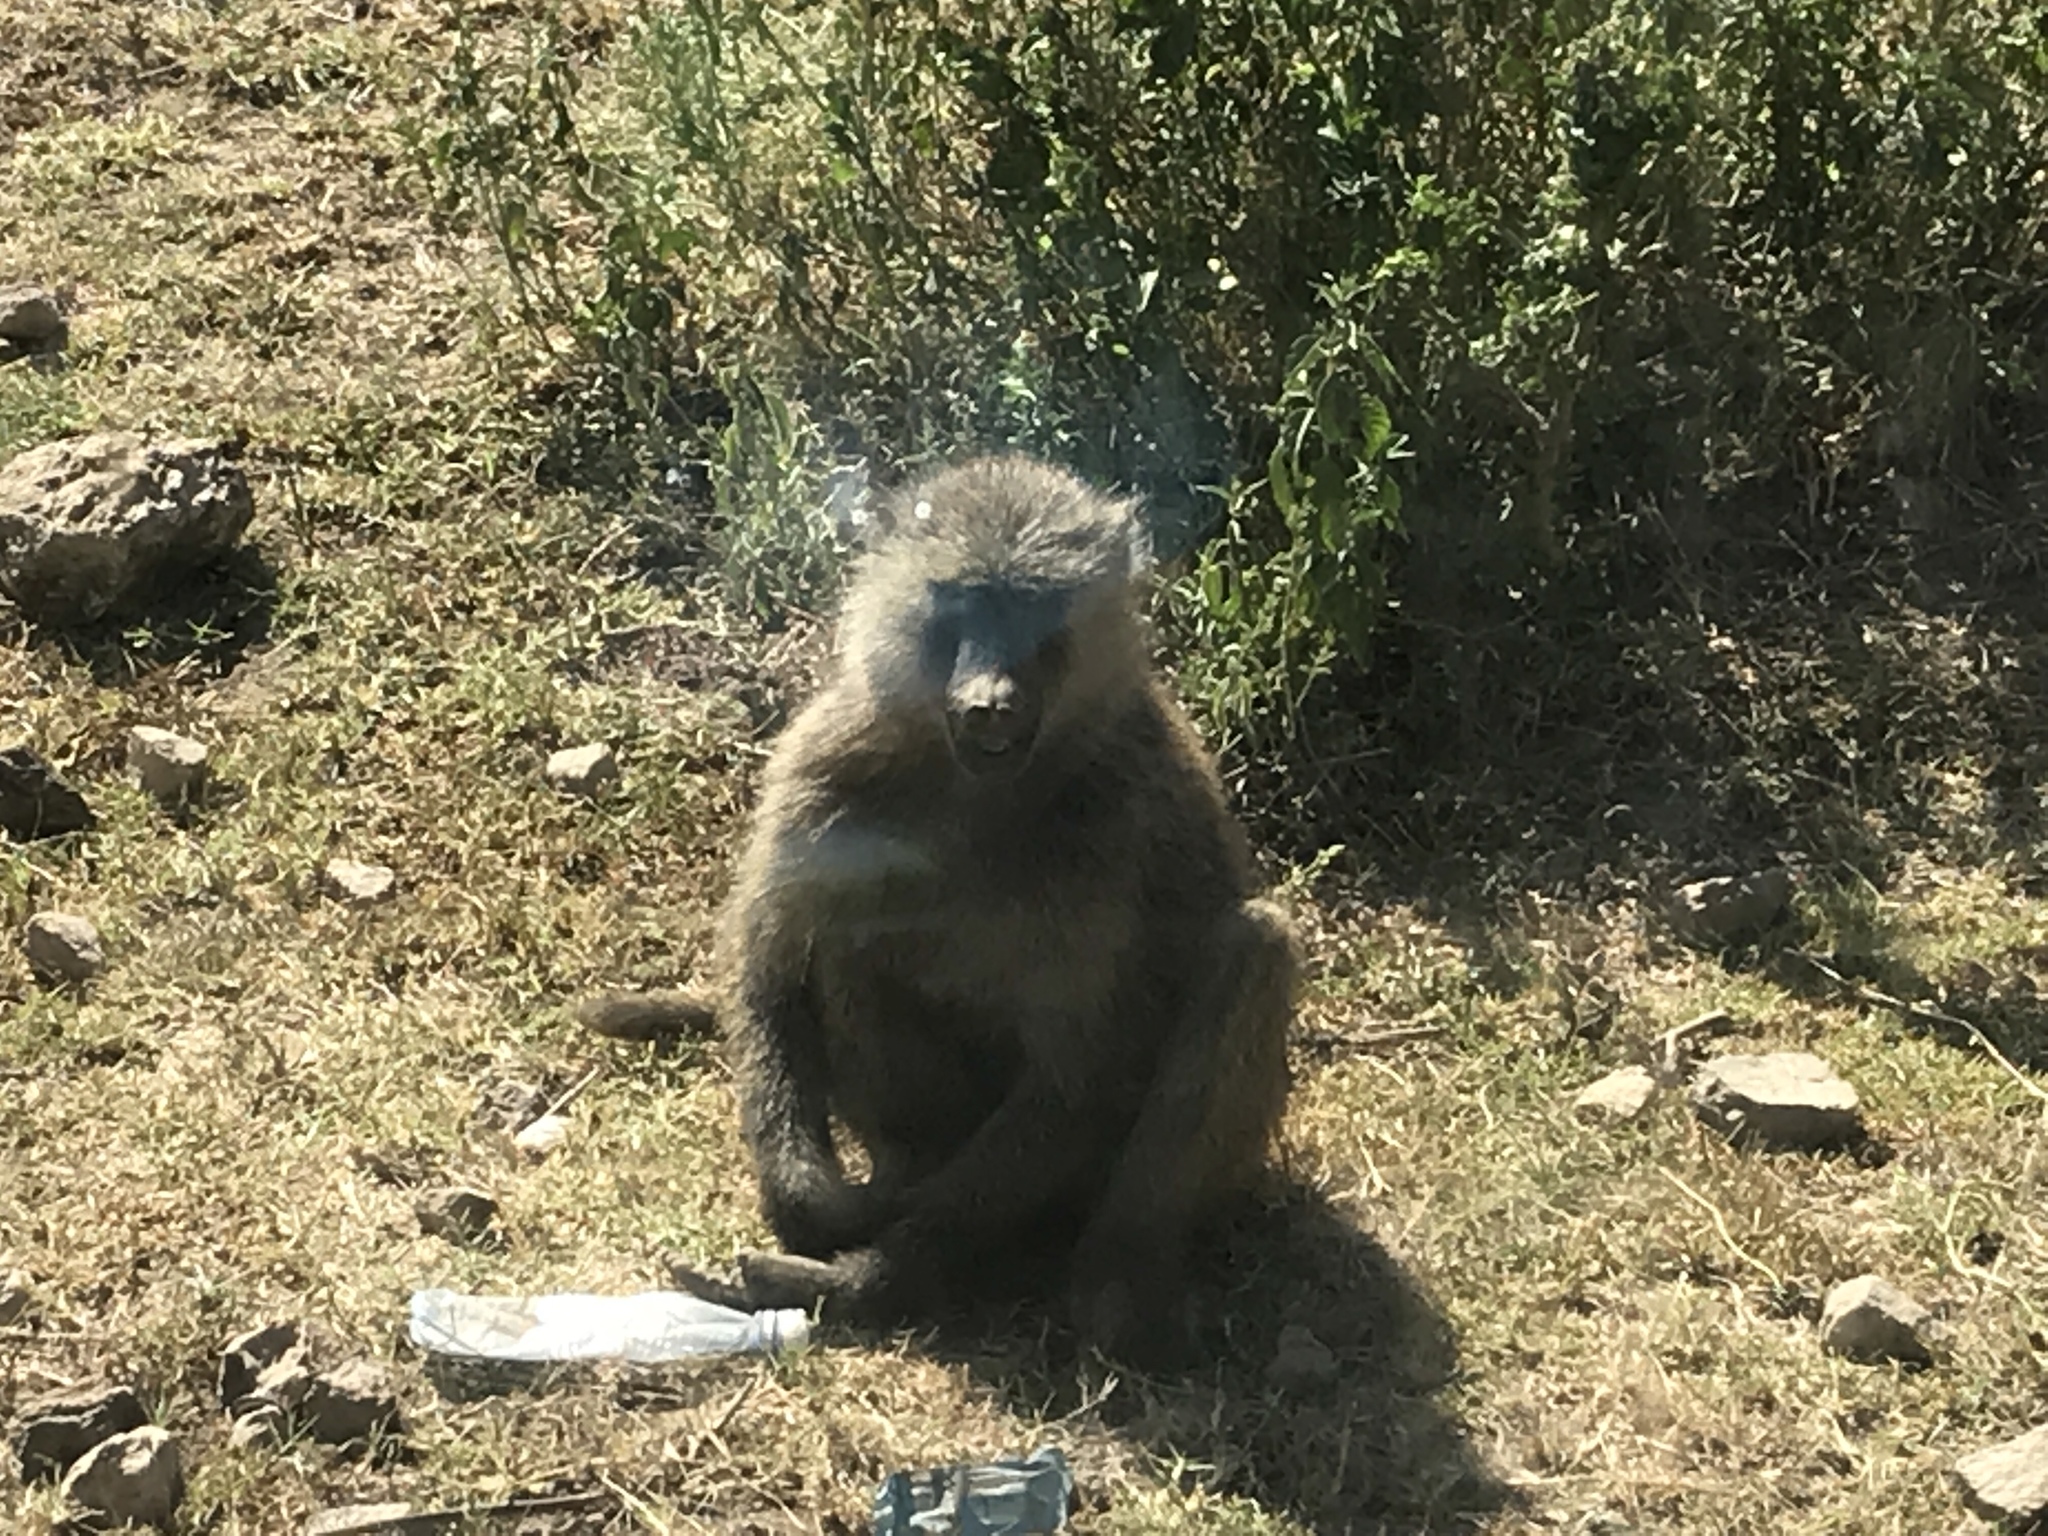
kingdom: Animalia
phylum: Chordata
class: Mammalia
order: Primates
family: Cercopithecidae
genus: Papio
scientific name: Papio anubis
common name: Olive baboon
